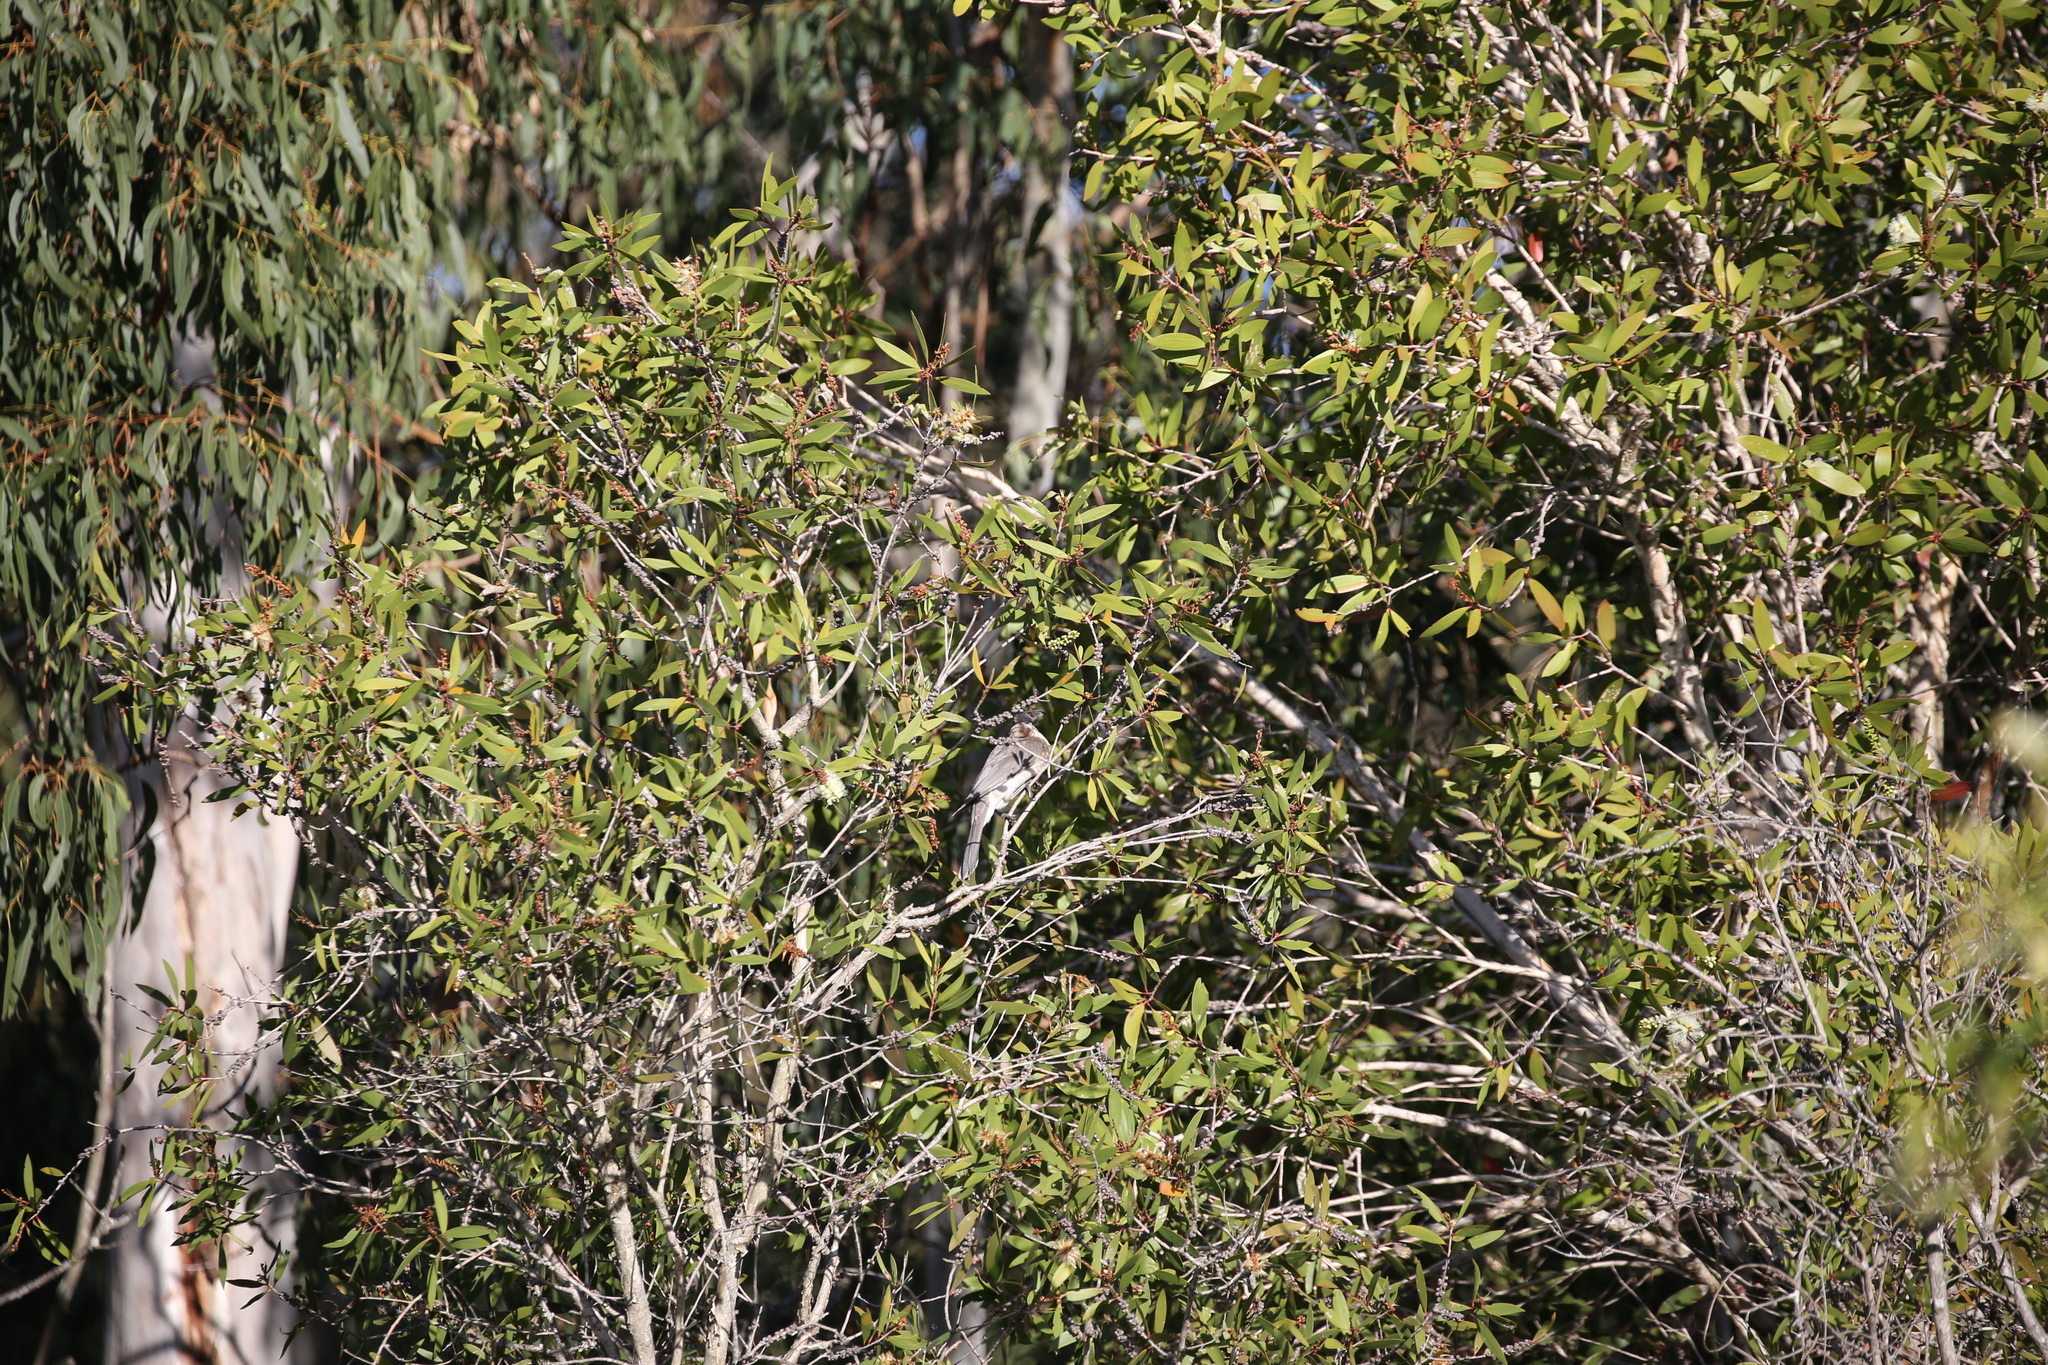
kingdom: Animalia
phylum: Chordata
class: Aves
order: Passeriformes
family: Meliphagidae
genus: Philemon
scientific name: Philemon corniculatus
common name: Noisy friarbird
